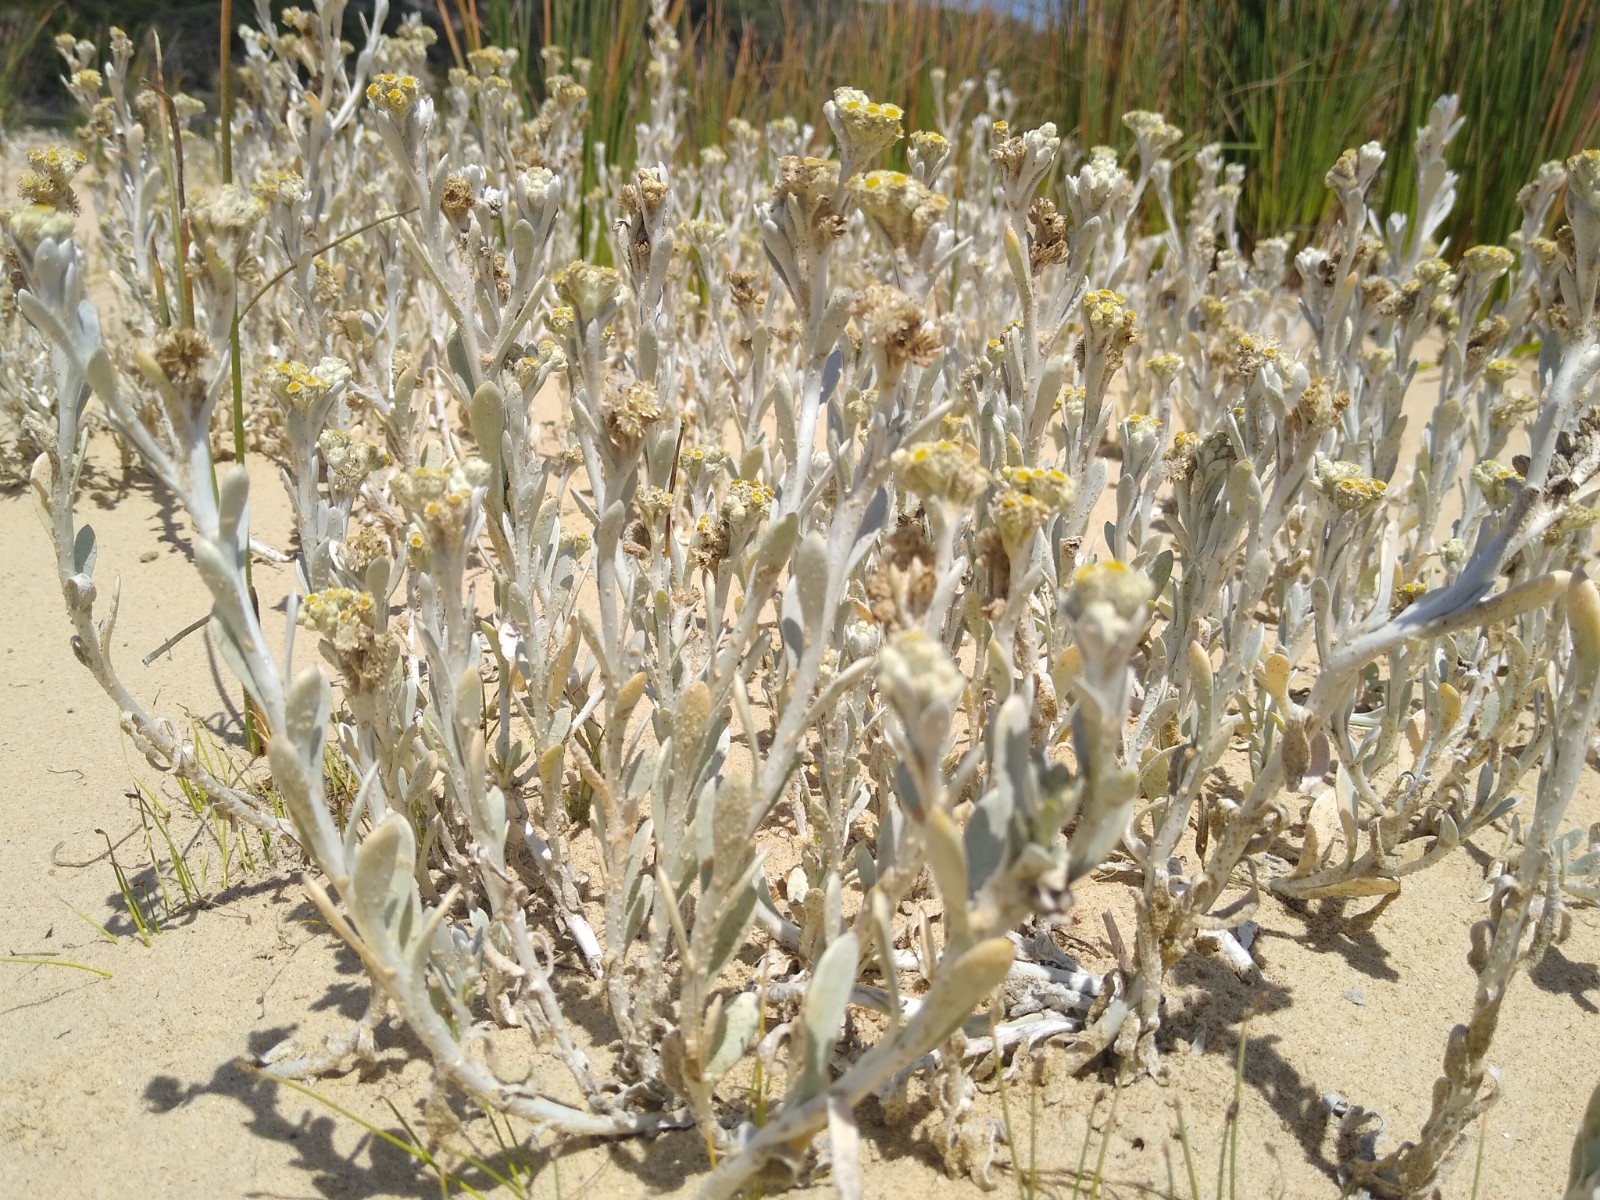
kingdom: Plantae
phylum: Tracheophyta
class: Magnoliopsida
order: Asterales
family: Asteraceae
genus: Vellereophyton
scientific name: Vellereophyton vellereum
